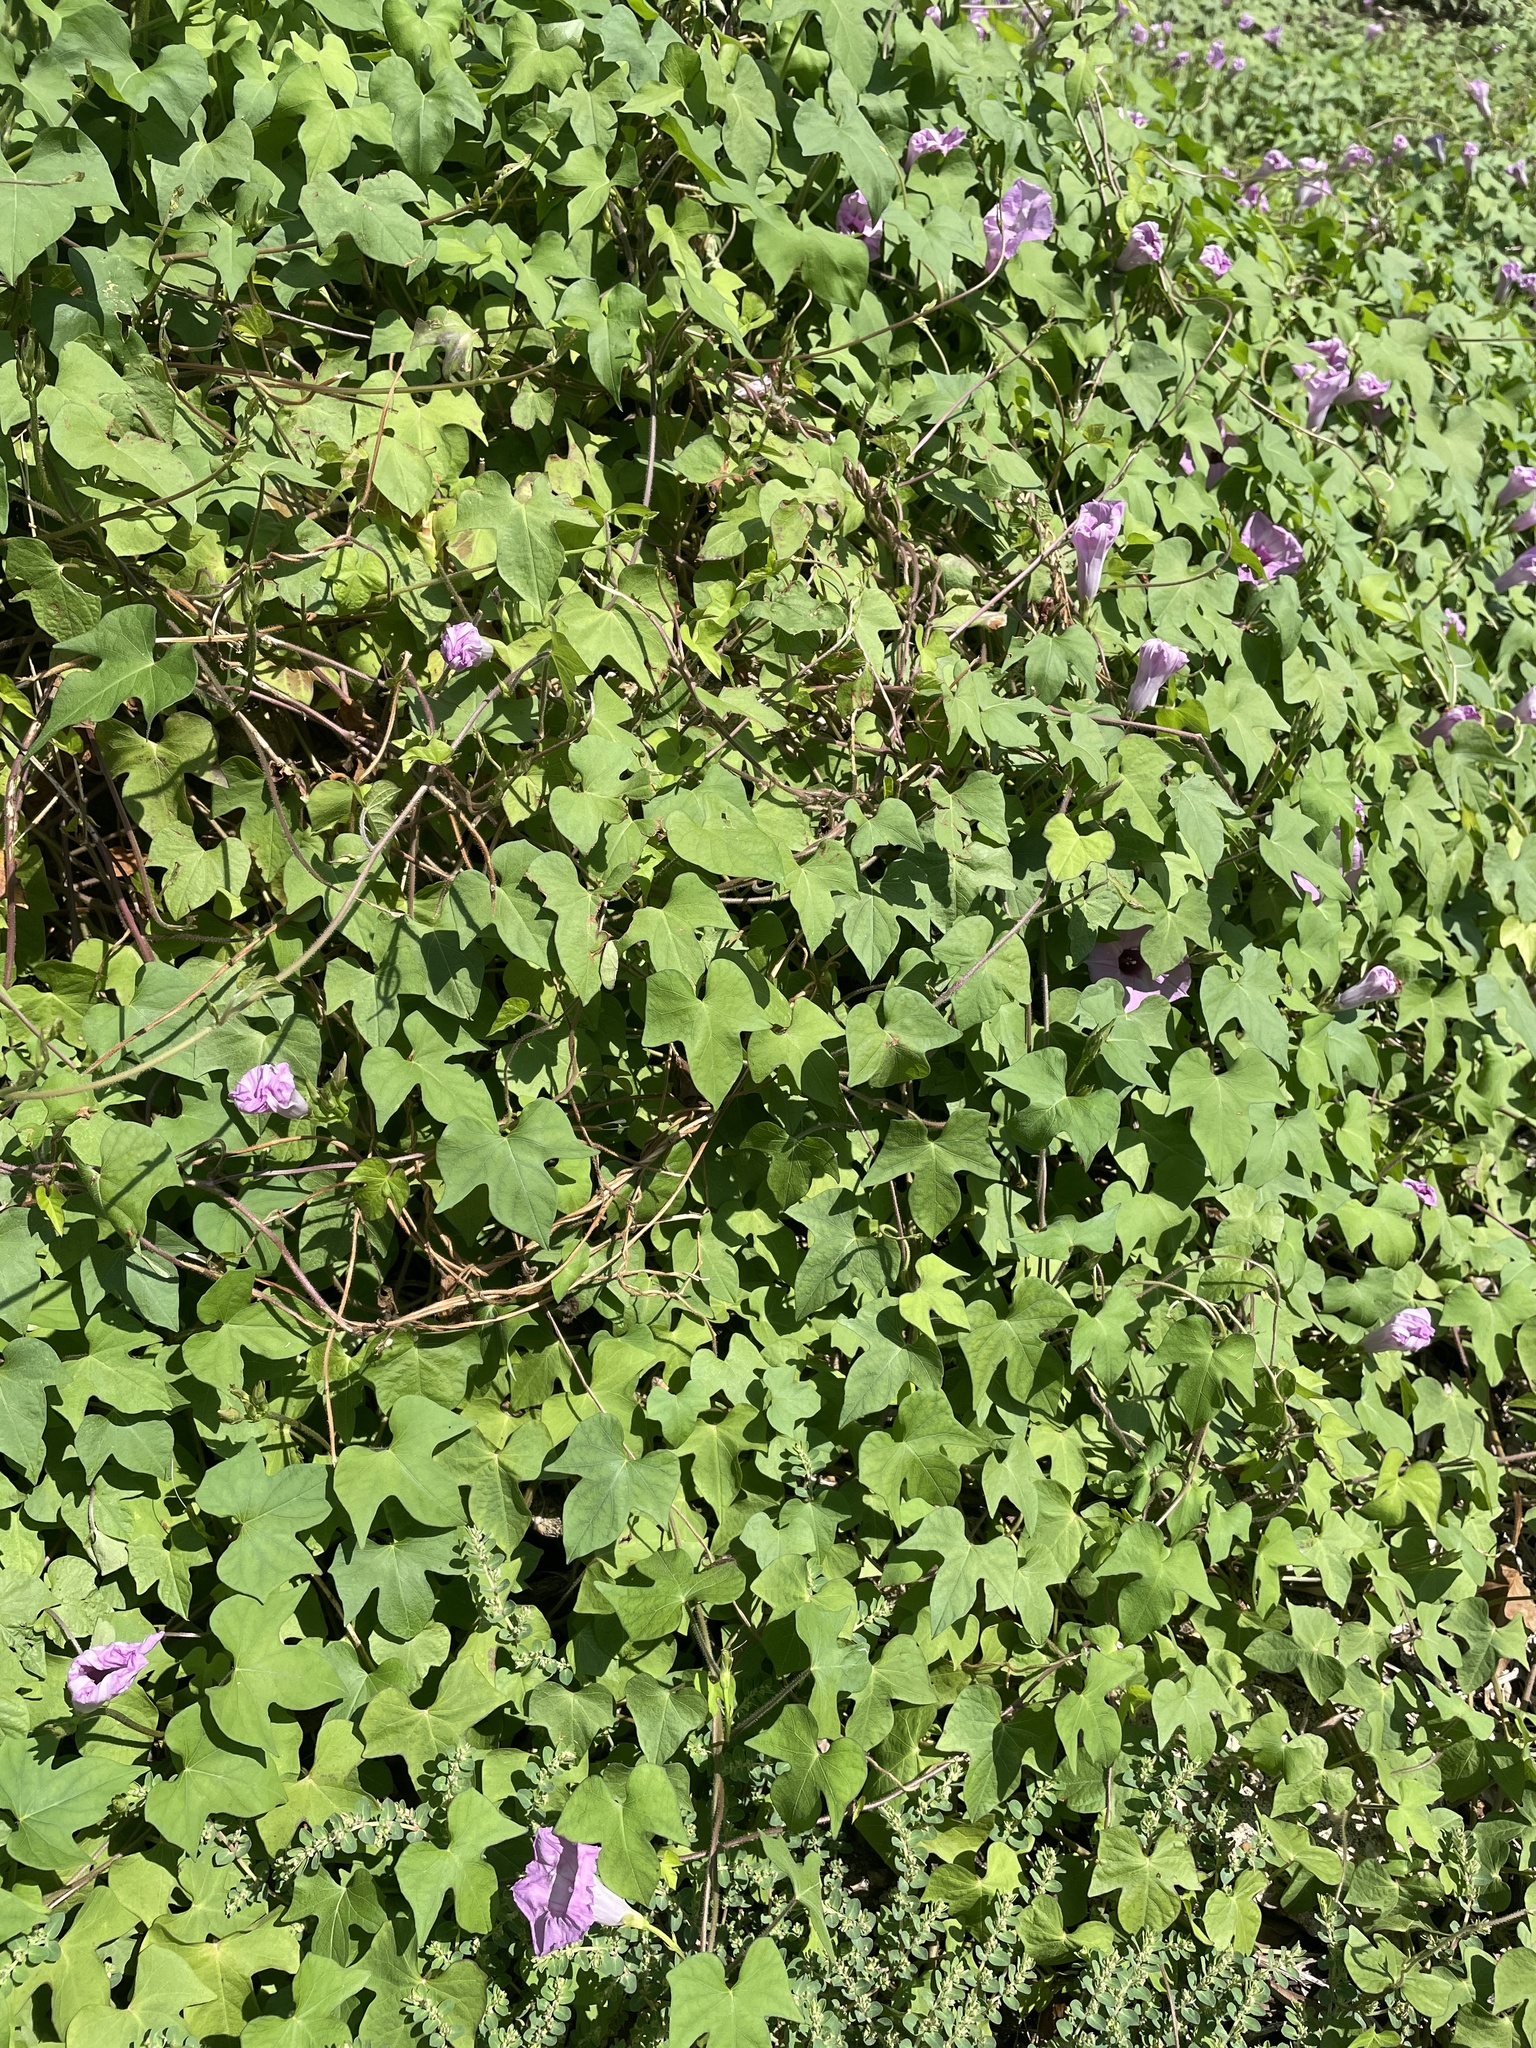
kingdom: Plantae
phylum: Tracheophyta
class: Magnoliopsida
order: Solanales
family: Convolvulaceae
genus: Ipomoea
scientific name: Ipomoea cordatotriloba
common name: Cotton morning glory
